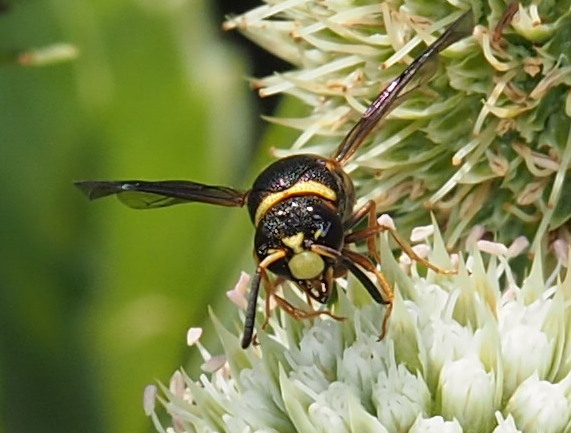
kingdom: Animalia
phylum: Arthropoda
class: Insecta
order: Hymenoptera
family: Eumenidae
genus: Euodynerus
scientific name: Euodynerus hidalgo
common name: Wasp
